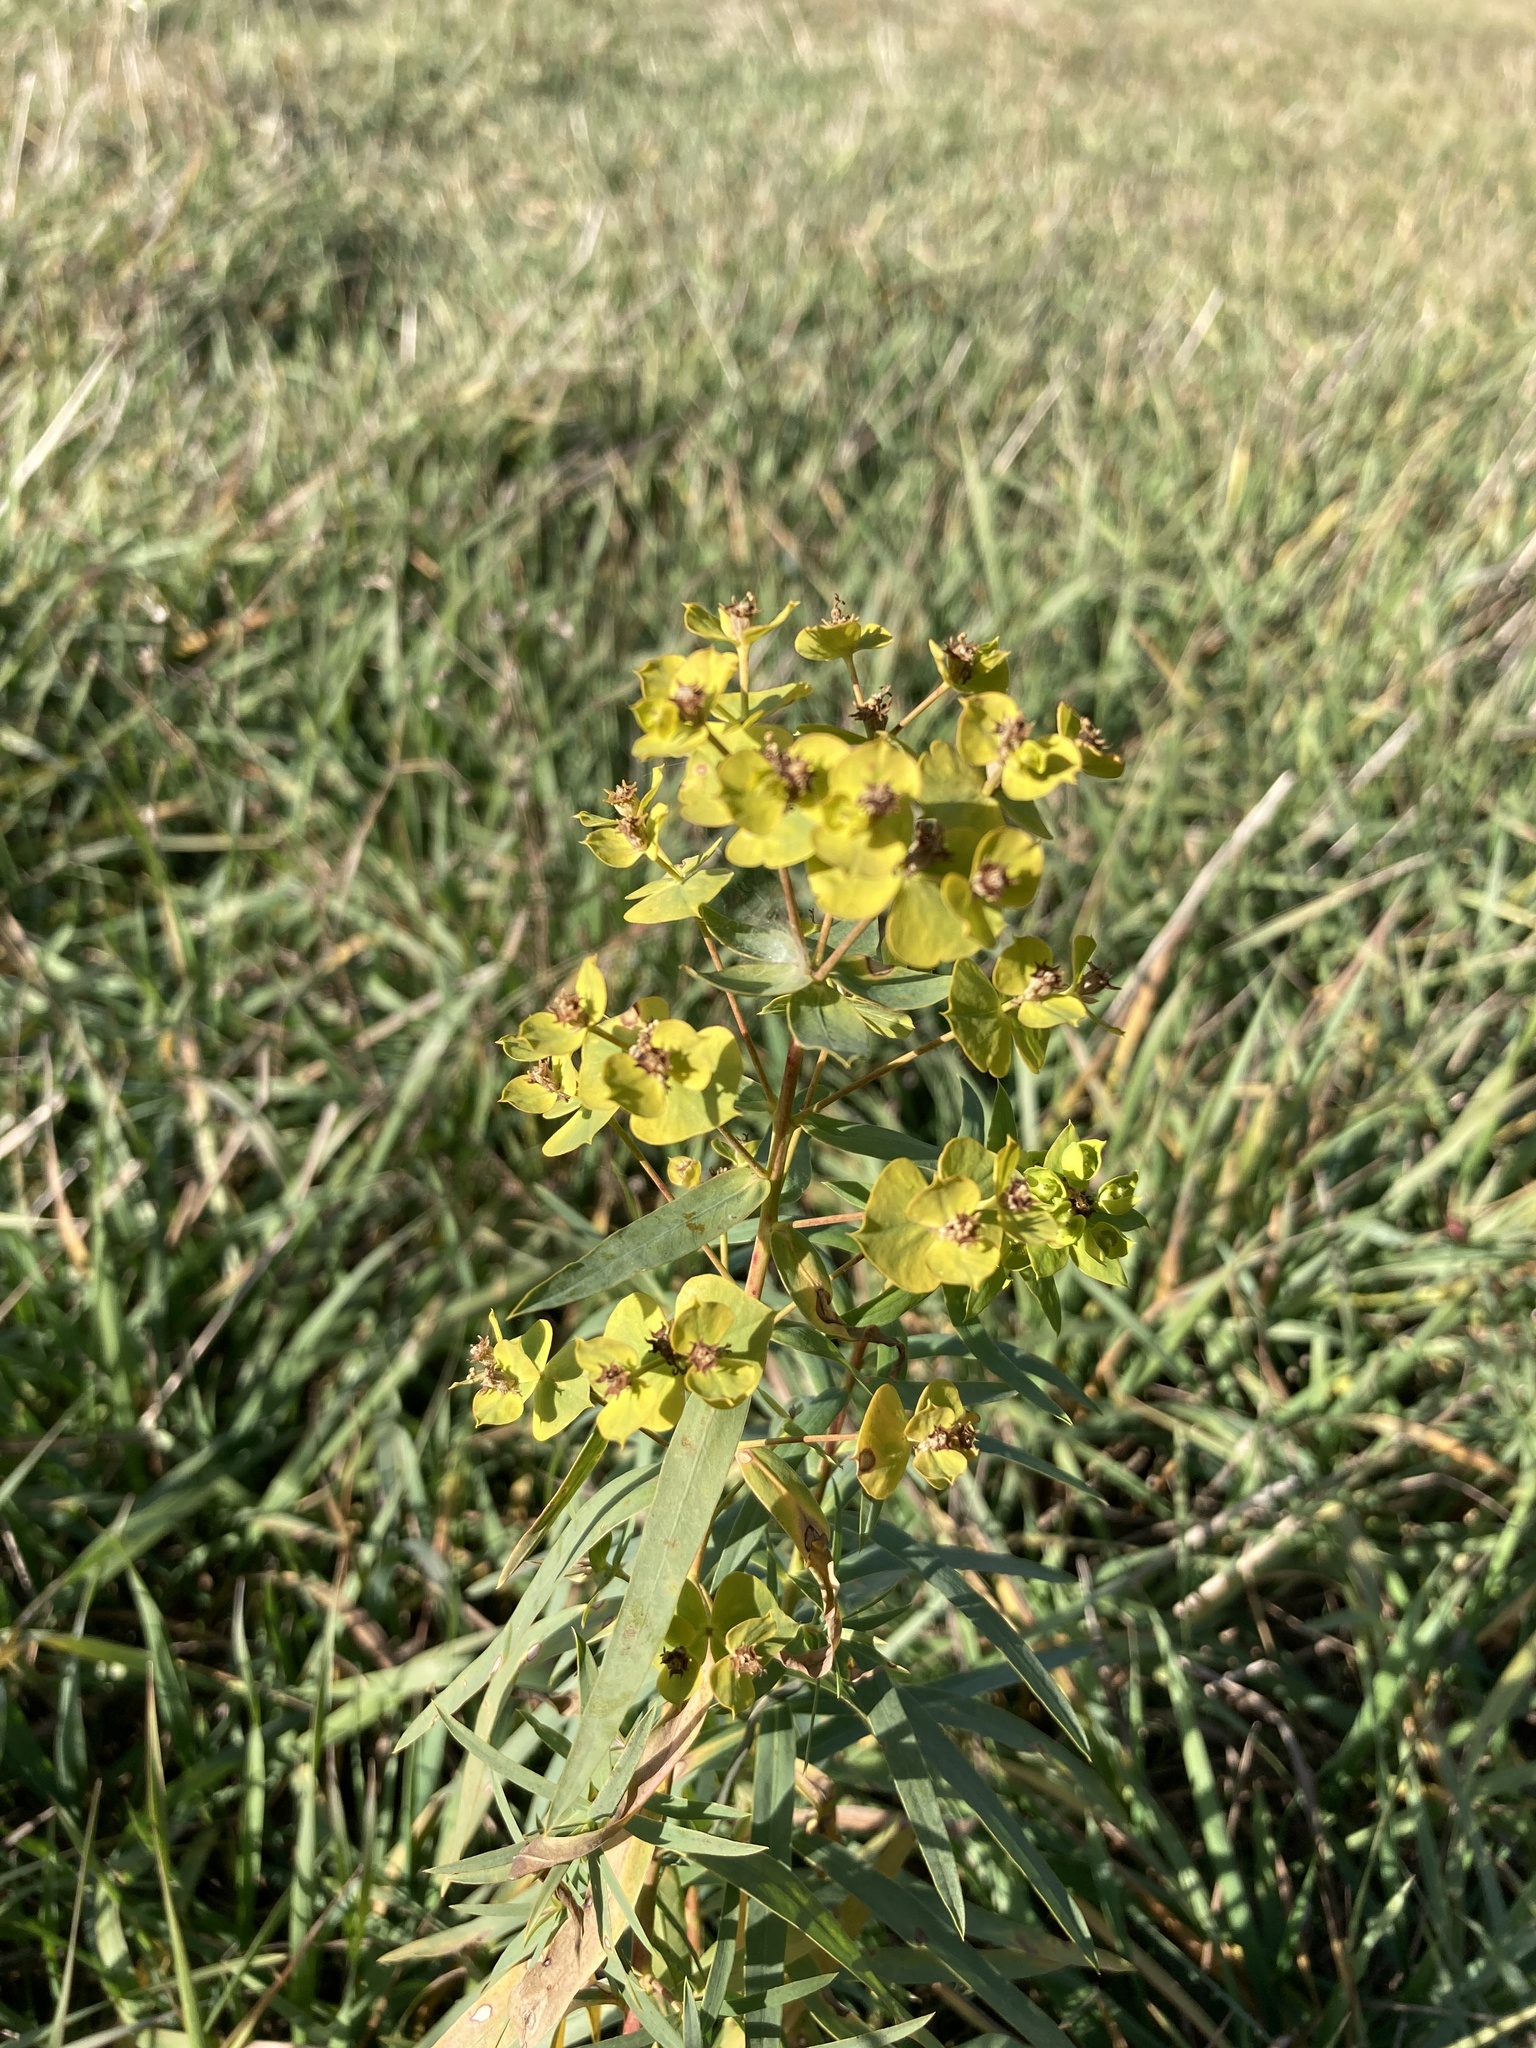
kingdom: Plantae
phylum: Tracheophyta
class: Magnoliopsida
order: Malpighiales
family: Euphorbiaceae
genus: Euphorbia
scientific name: Euphorbia virgata
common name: Leafy spurge
